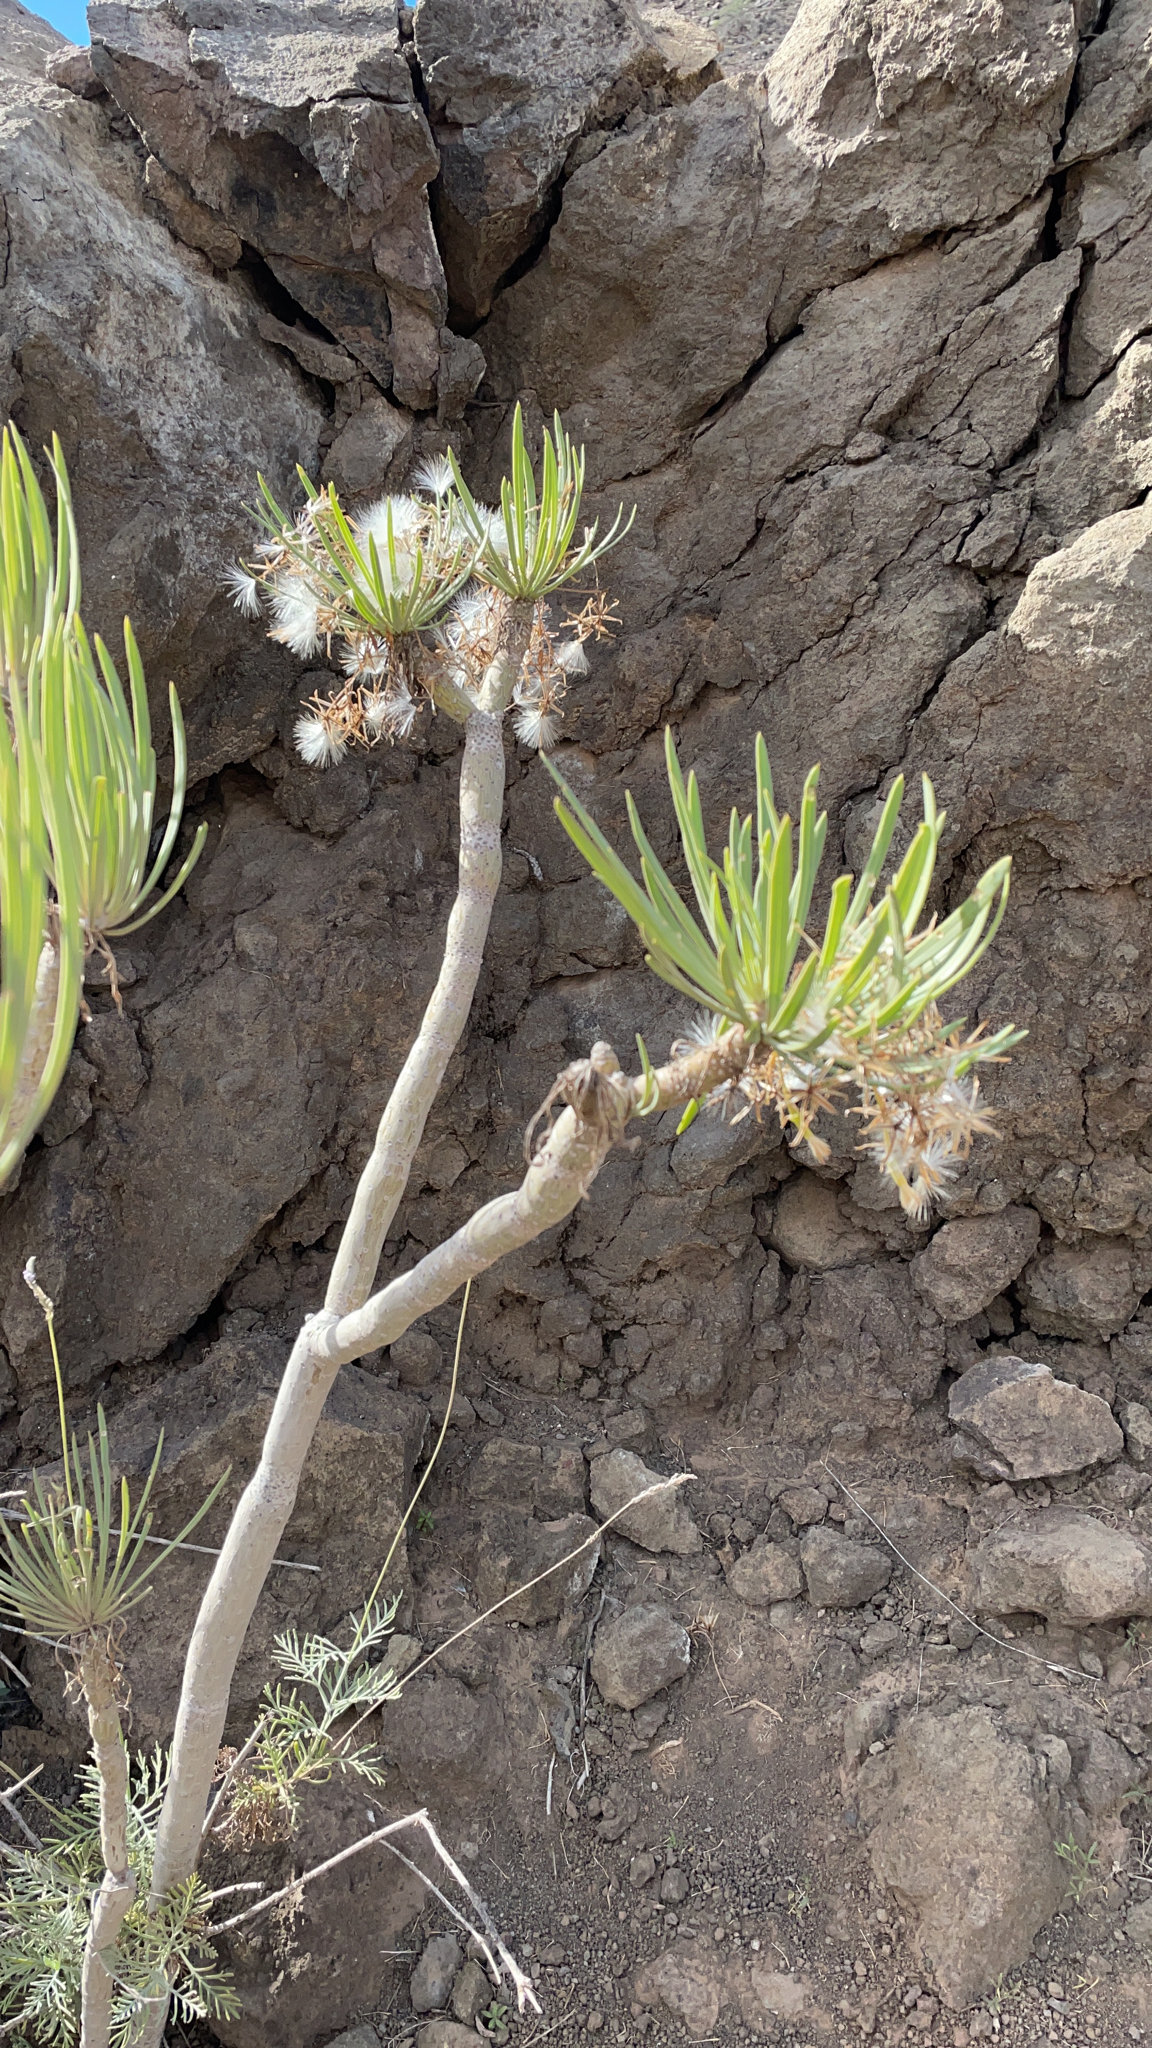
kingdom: Plantae
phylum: Tracheophyta
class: Magnoliopsida
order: Asterales
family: Asteraceae
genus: Kleinia
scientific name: Kleinia neriifolia
